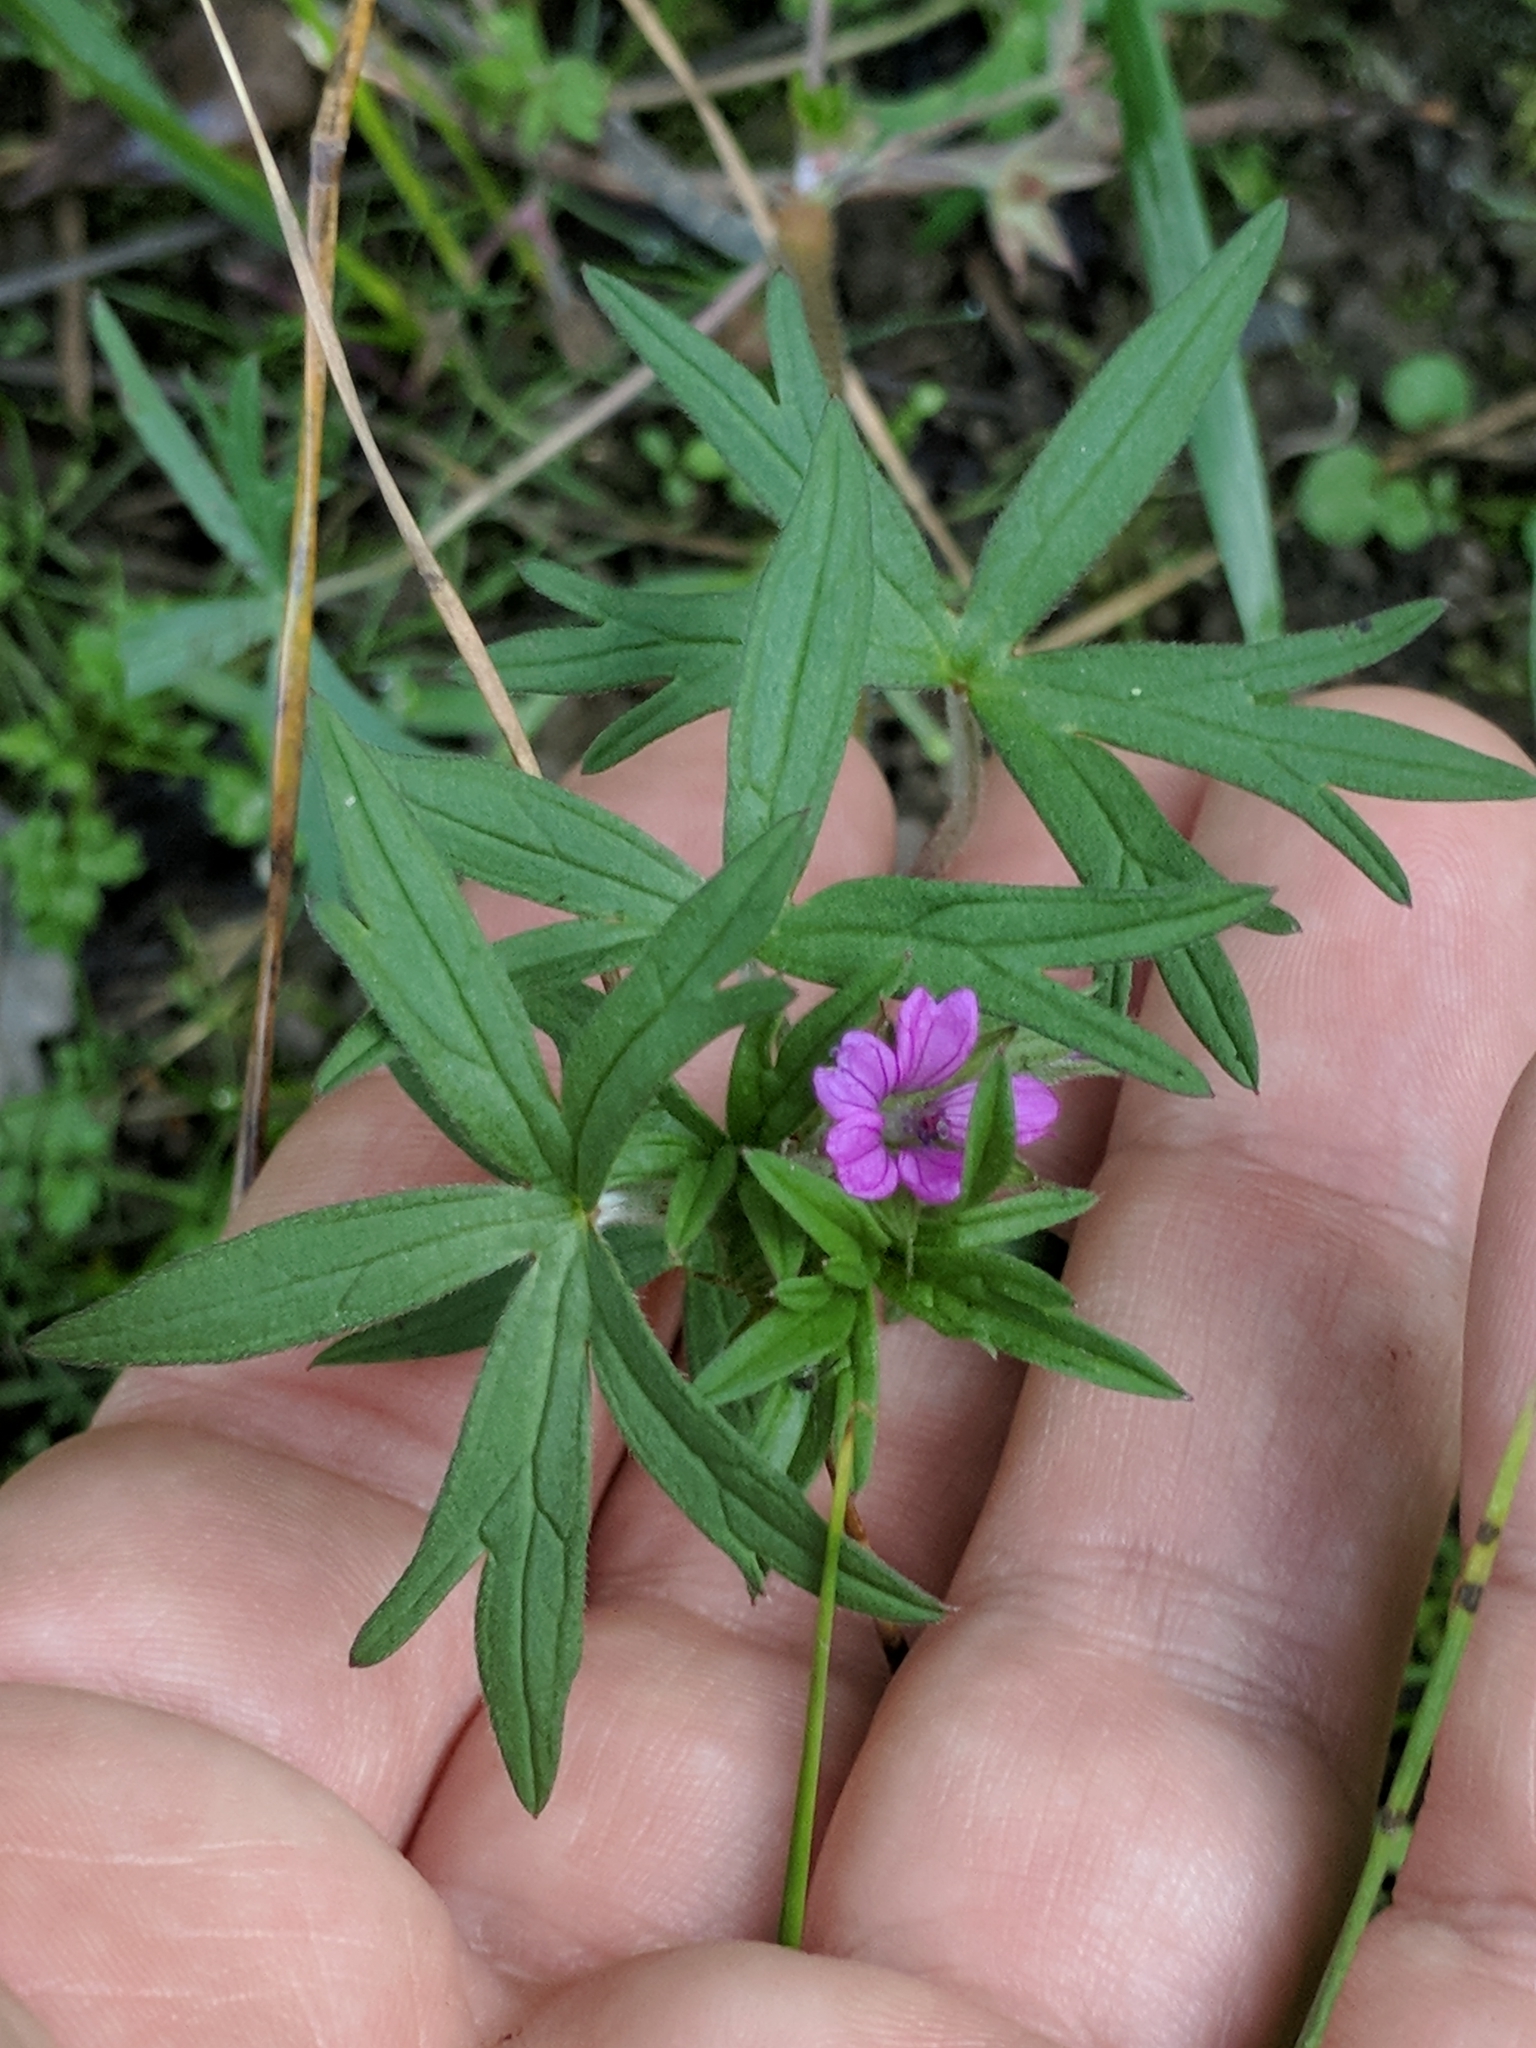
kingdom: Plantae
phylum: Tracheophyta
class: Magnoliopsida
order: Geraniales
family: Geraniaceae
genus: Geranium
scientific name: Geranium dissectum
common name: Cut-leaved crane's-bill
